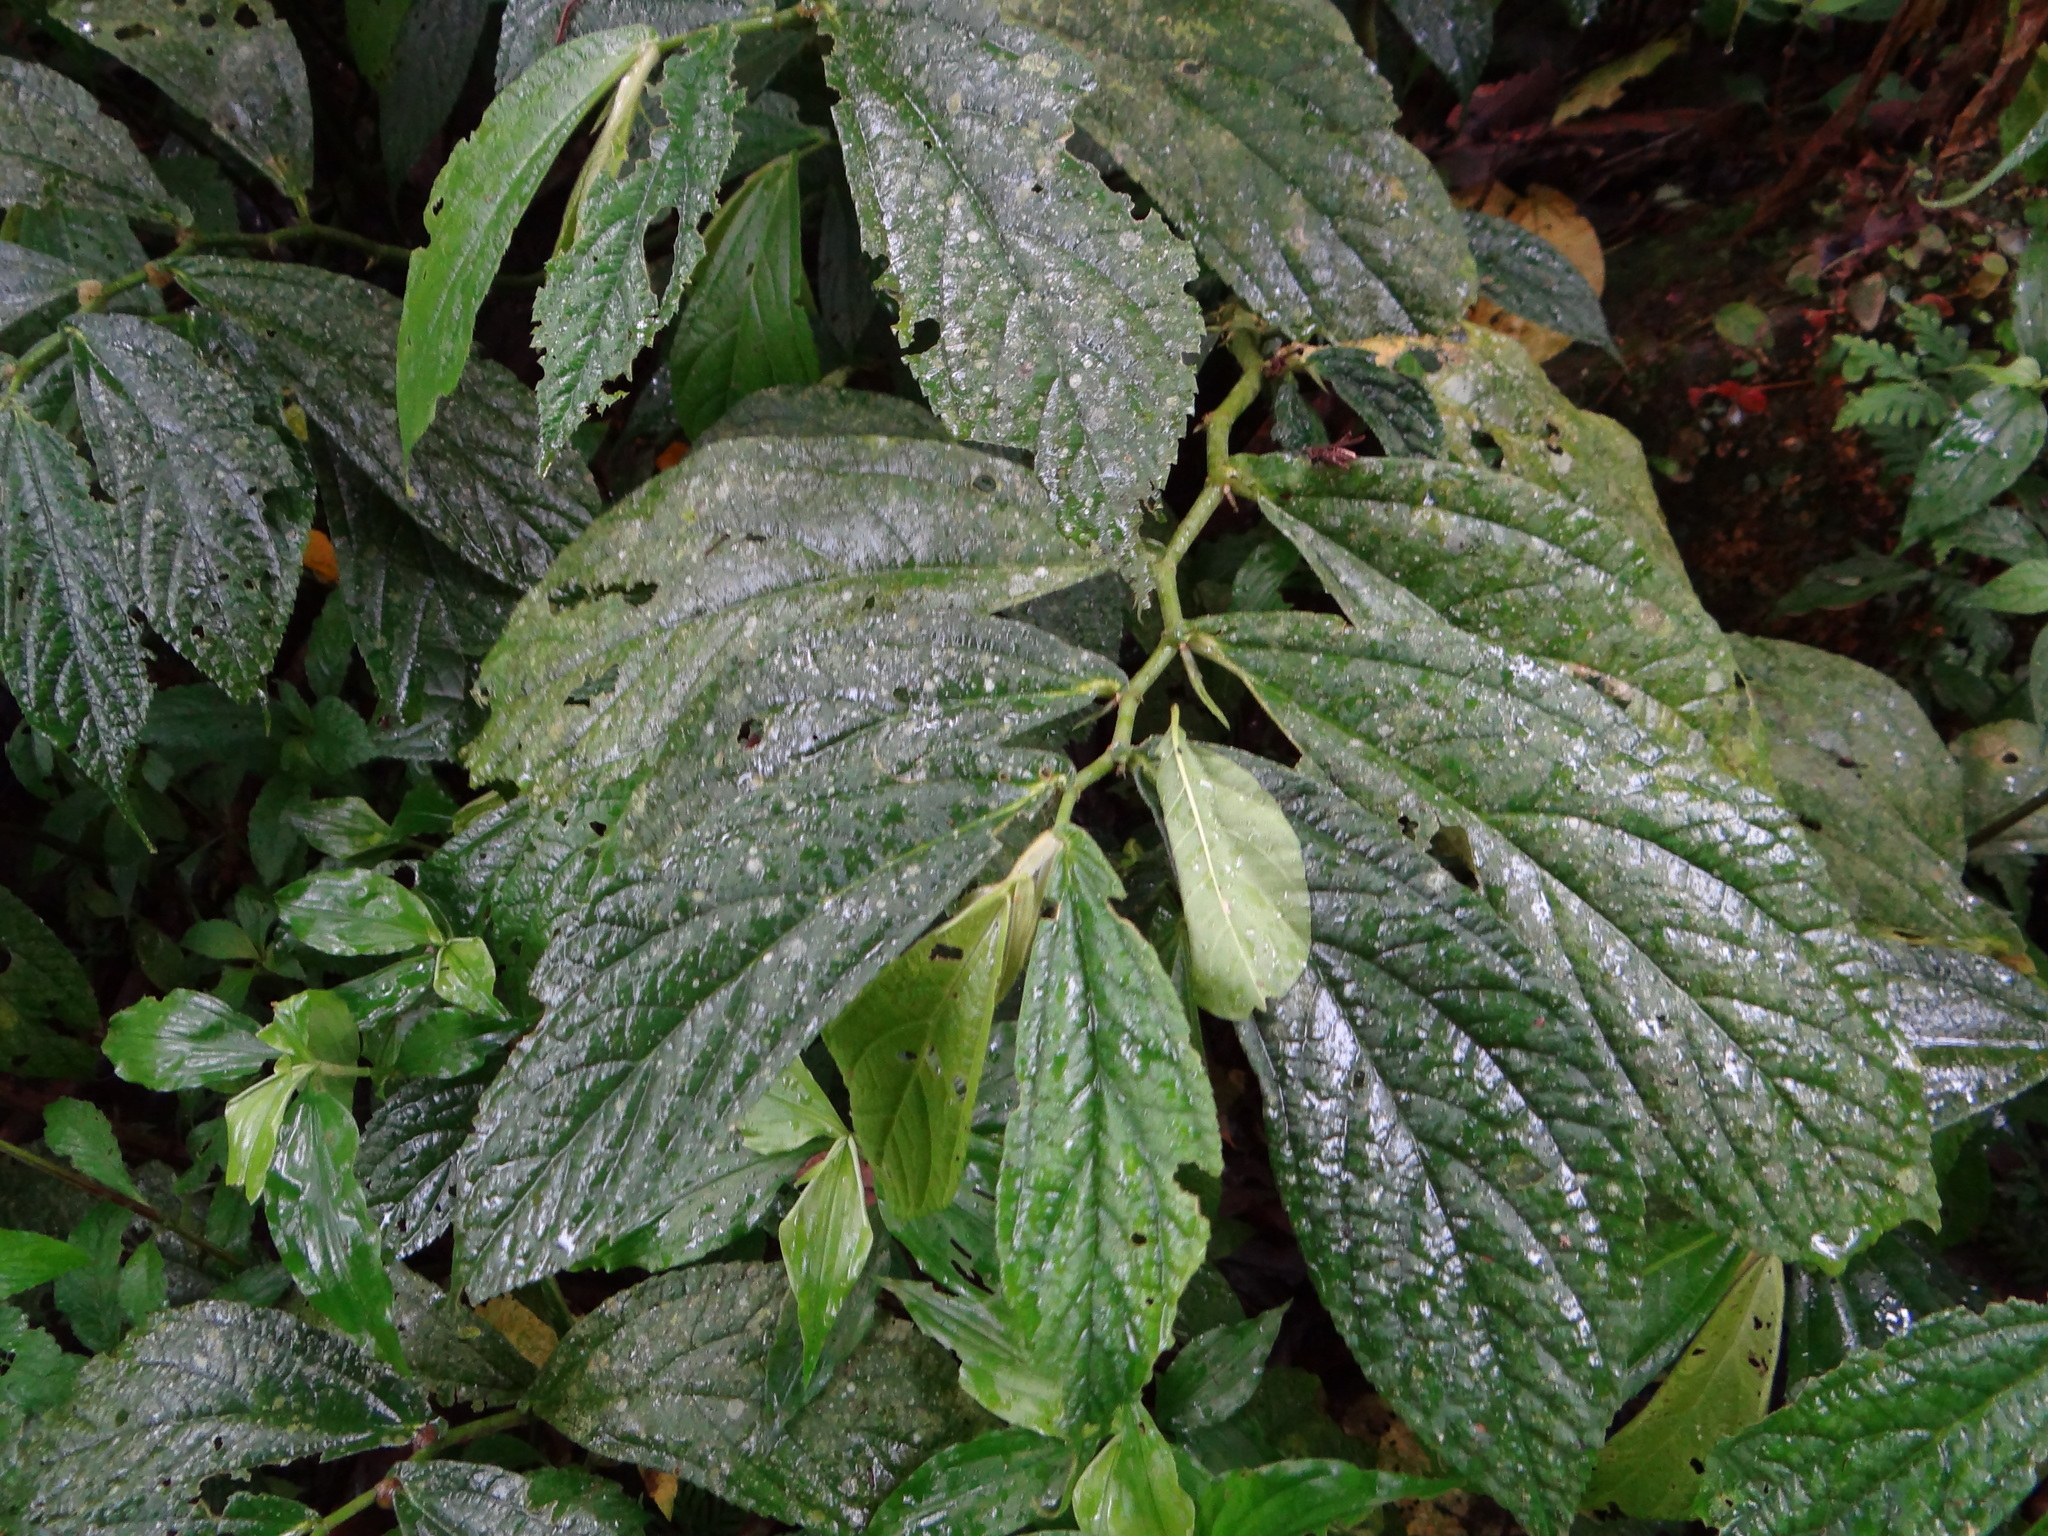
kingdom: Plantae
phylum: Tracheophyta
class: Magnoliopsida
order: Rosales
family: Urticaceae
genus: Elatostema
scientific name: Elatostema platyphyllum
